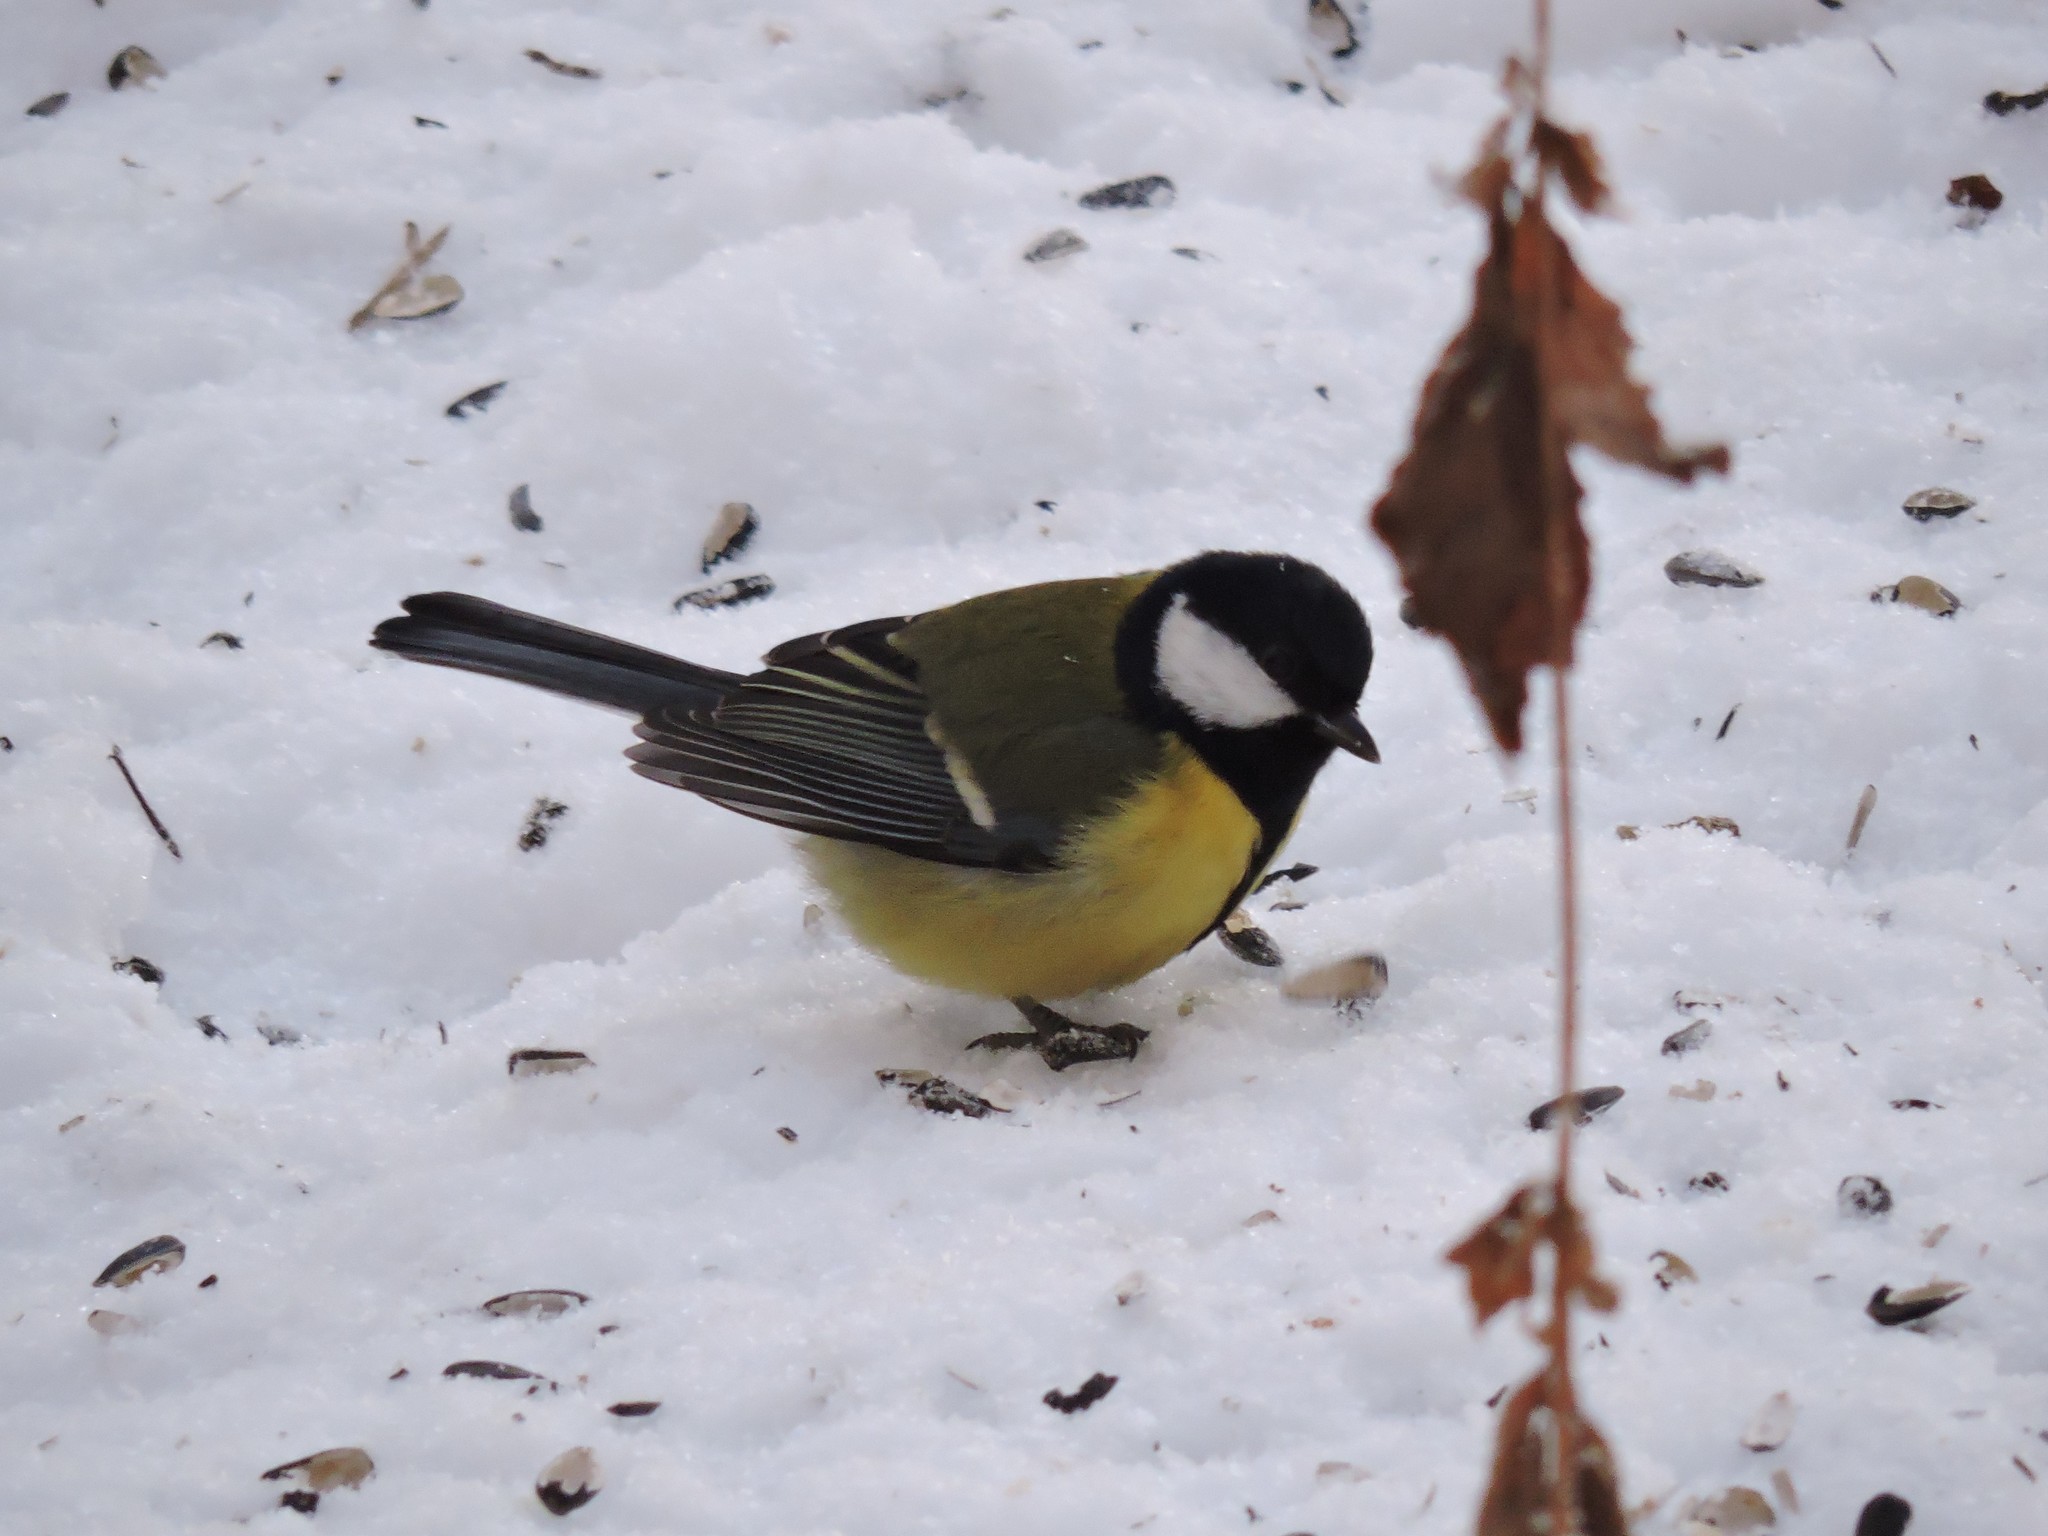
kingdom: Animalia
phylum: Chordata
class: Aves
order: Passeriformes
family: Paridae
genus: Parus
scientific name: Parus major
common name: Great tit
